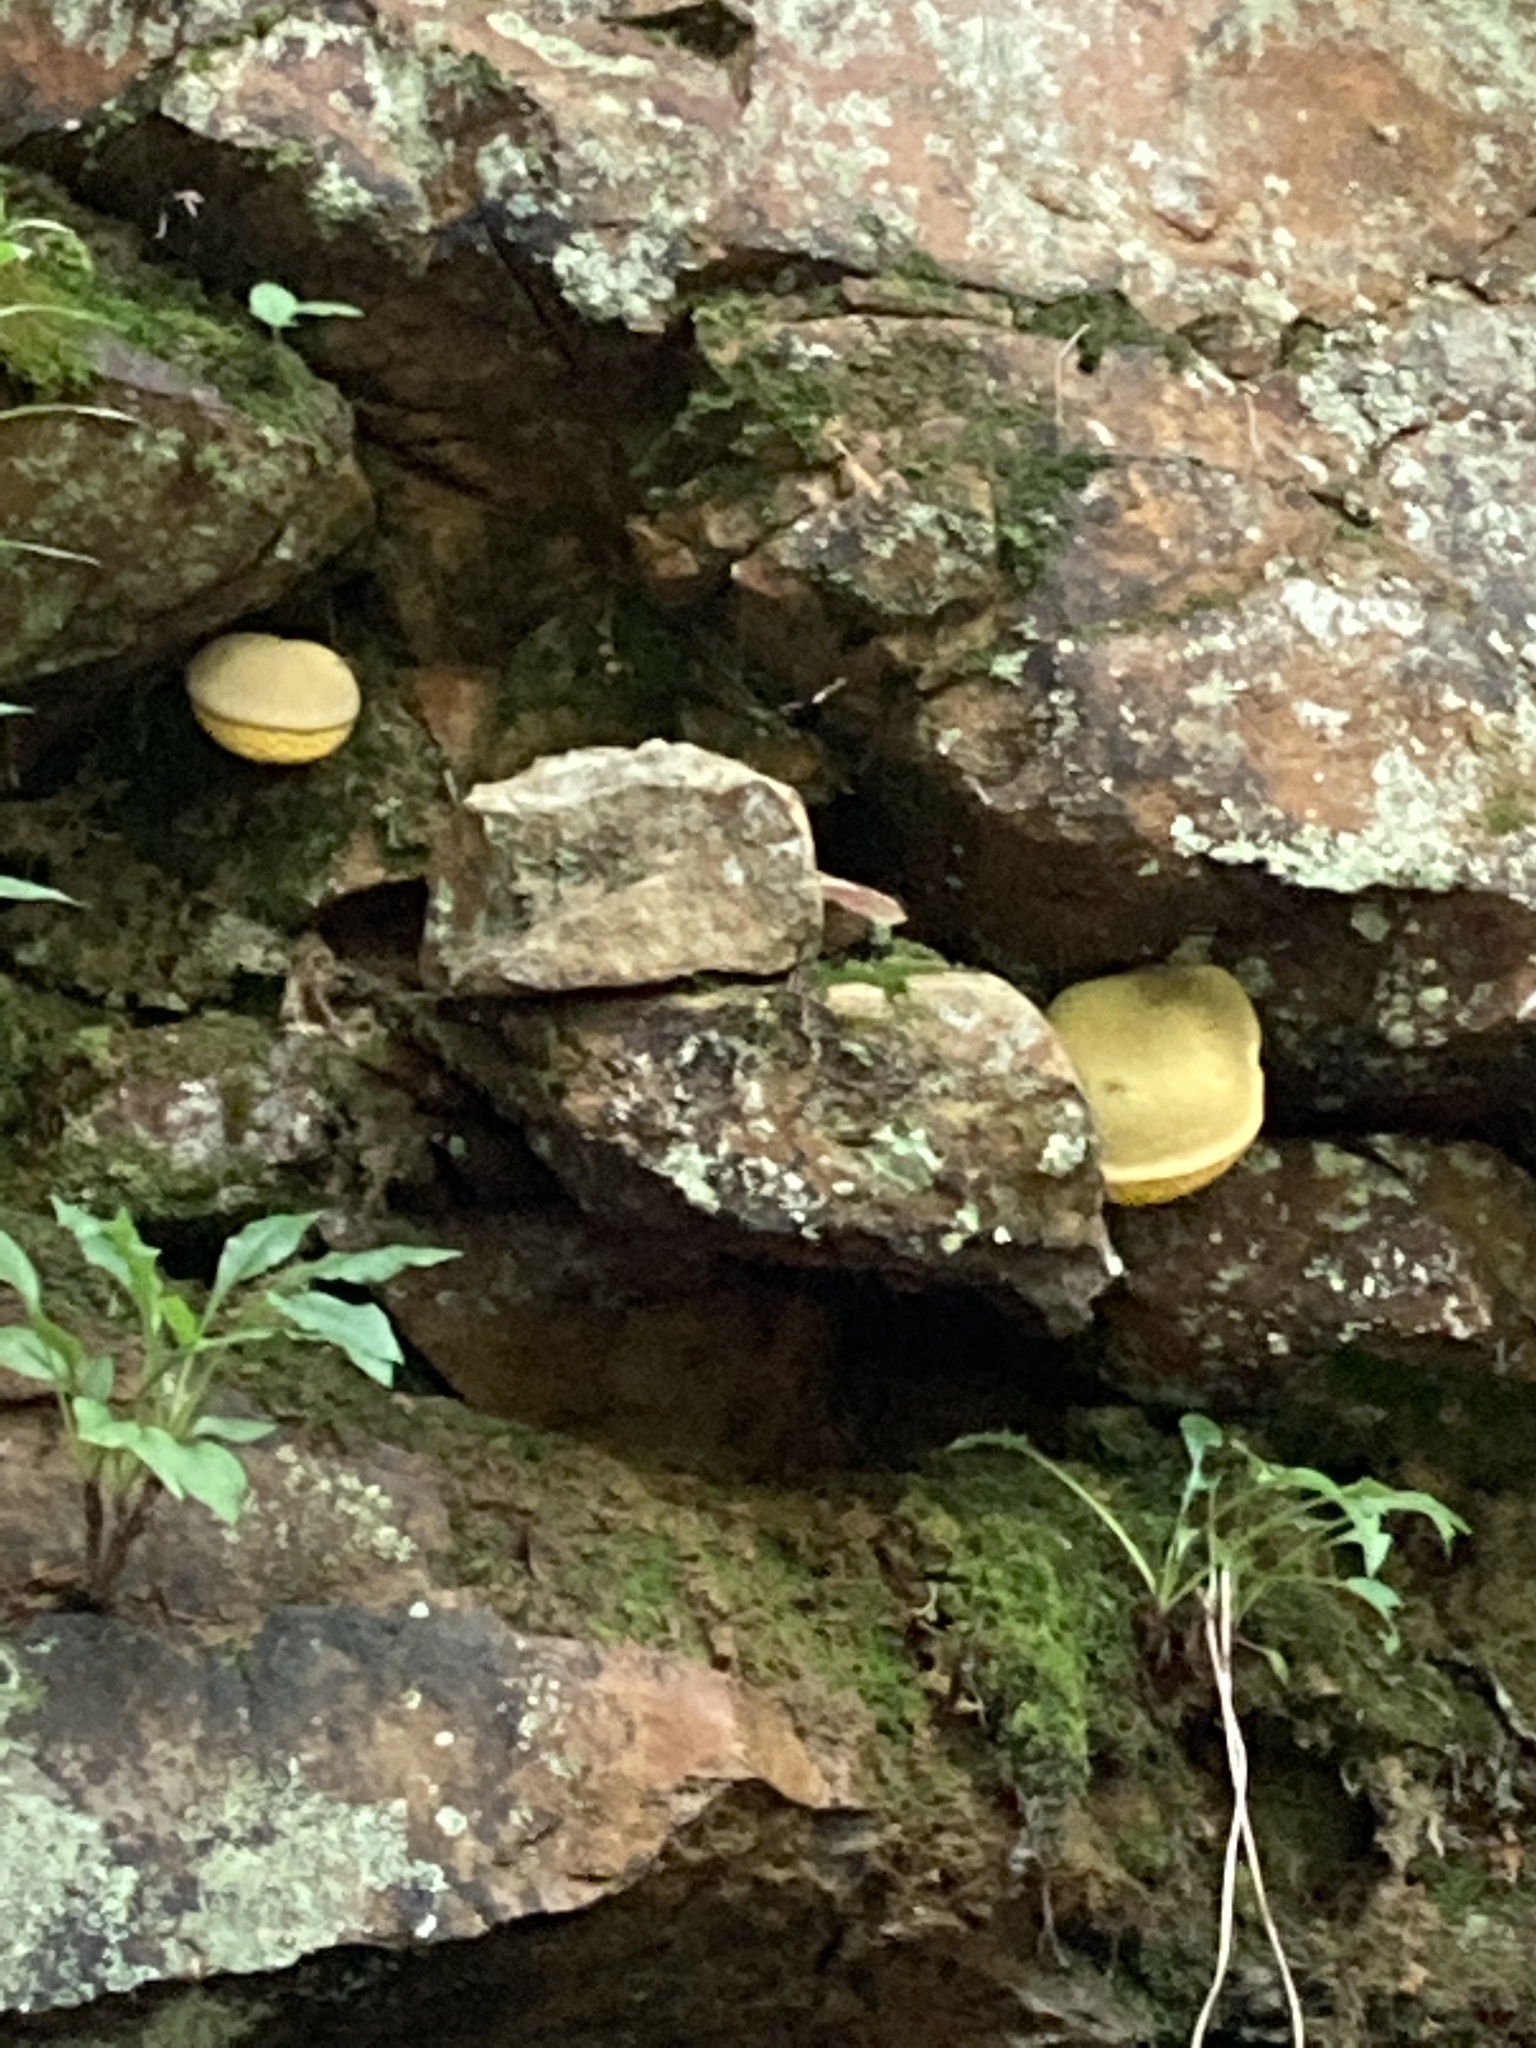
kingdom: Fungi
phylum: Basidiomycota
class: Agaricomycetes
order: Boletales
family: Boletaceae
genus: Retiboletus
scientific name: Retiboletus ornatipes
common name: Ornate-stalked bolete
